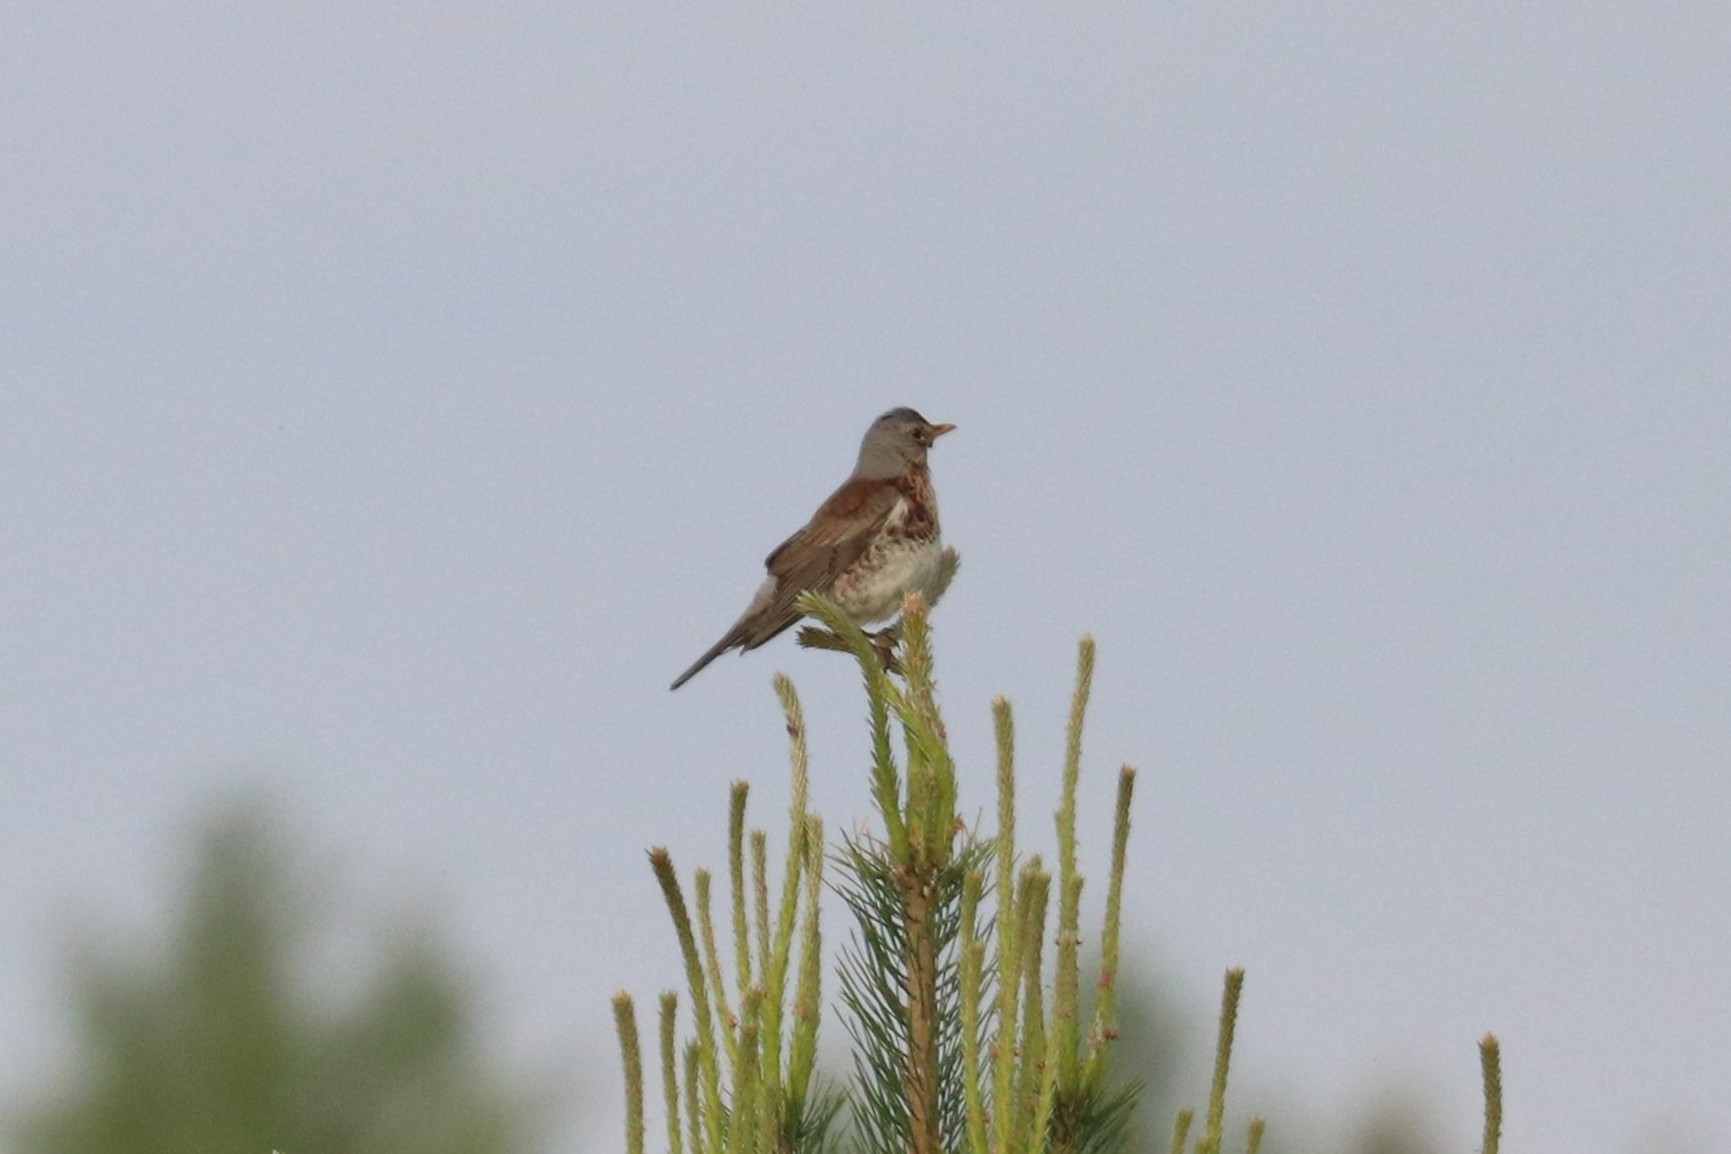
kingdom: Animalia
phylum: Chordata
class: Aves
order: Passeriformes
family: Turdidae
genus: Turdus
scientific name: Turdus pilaris
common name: Fieldfare
